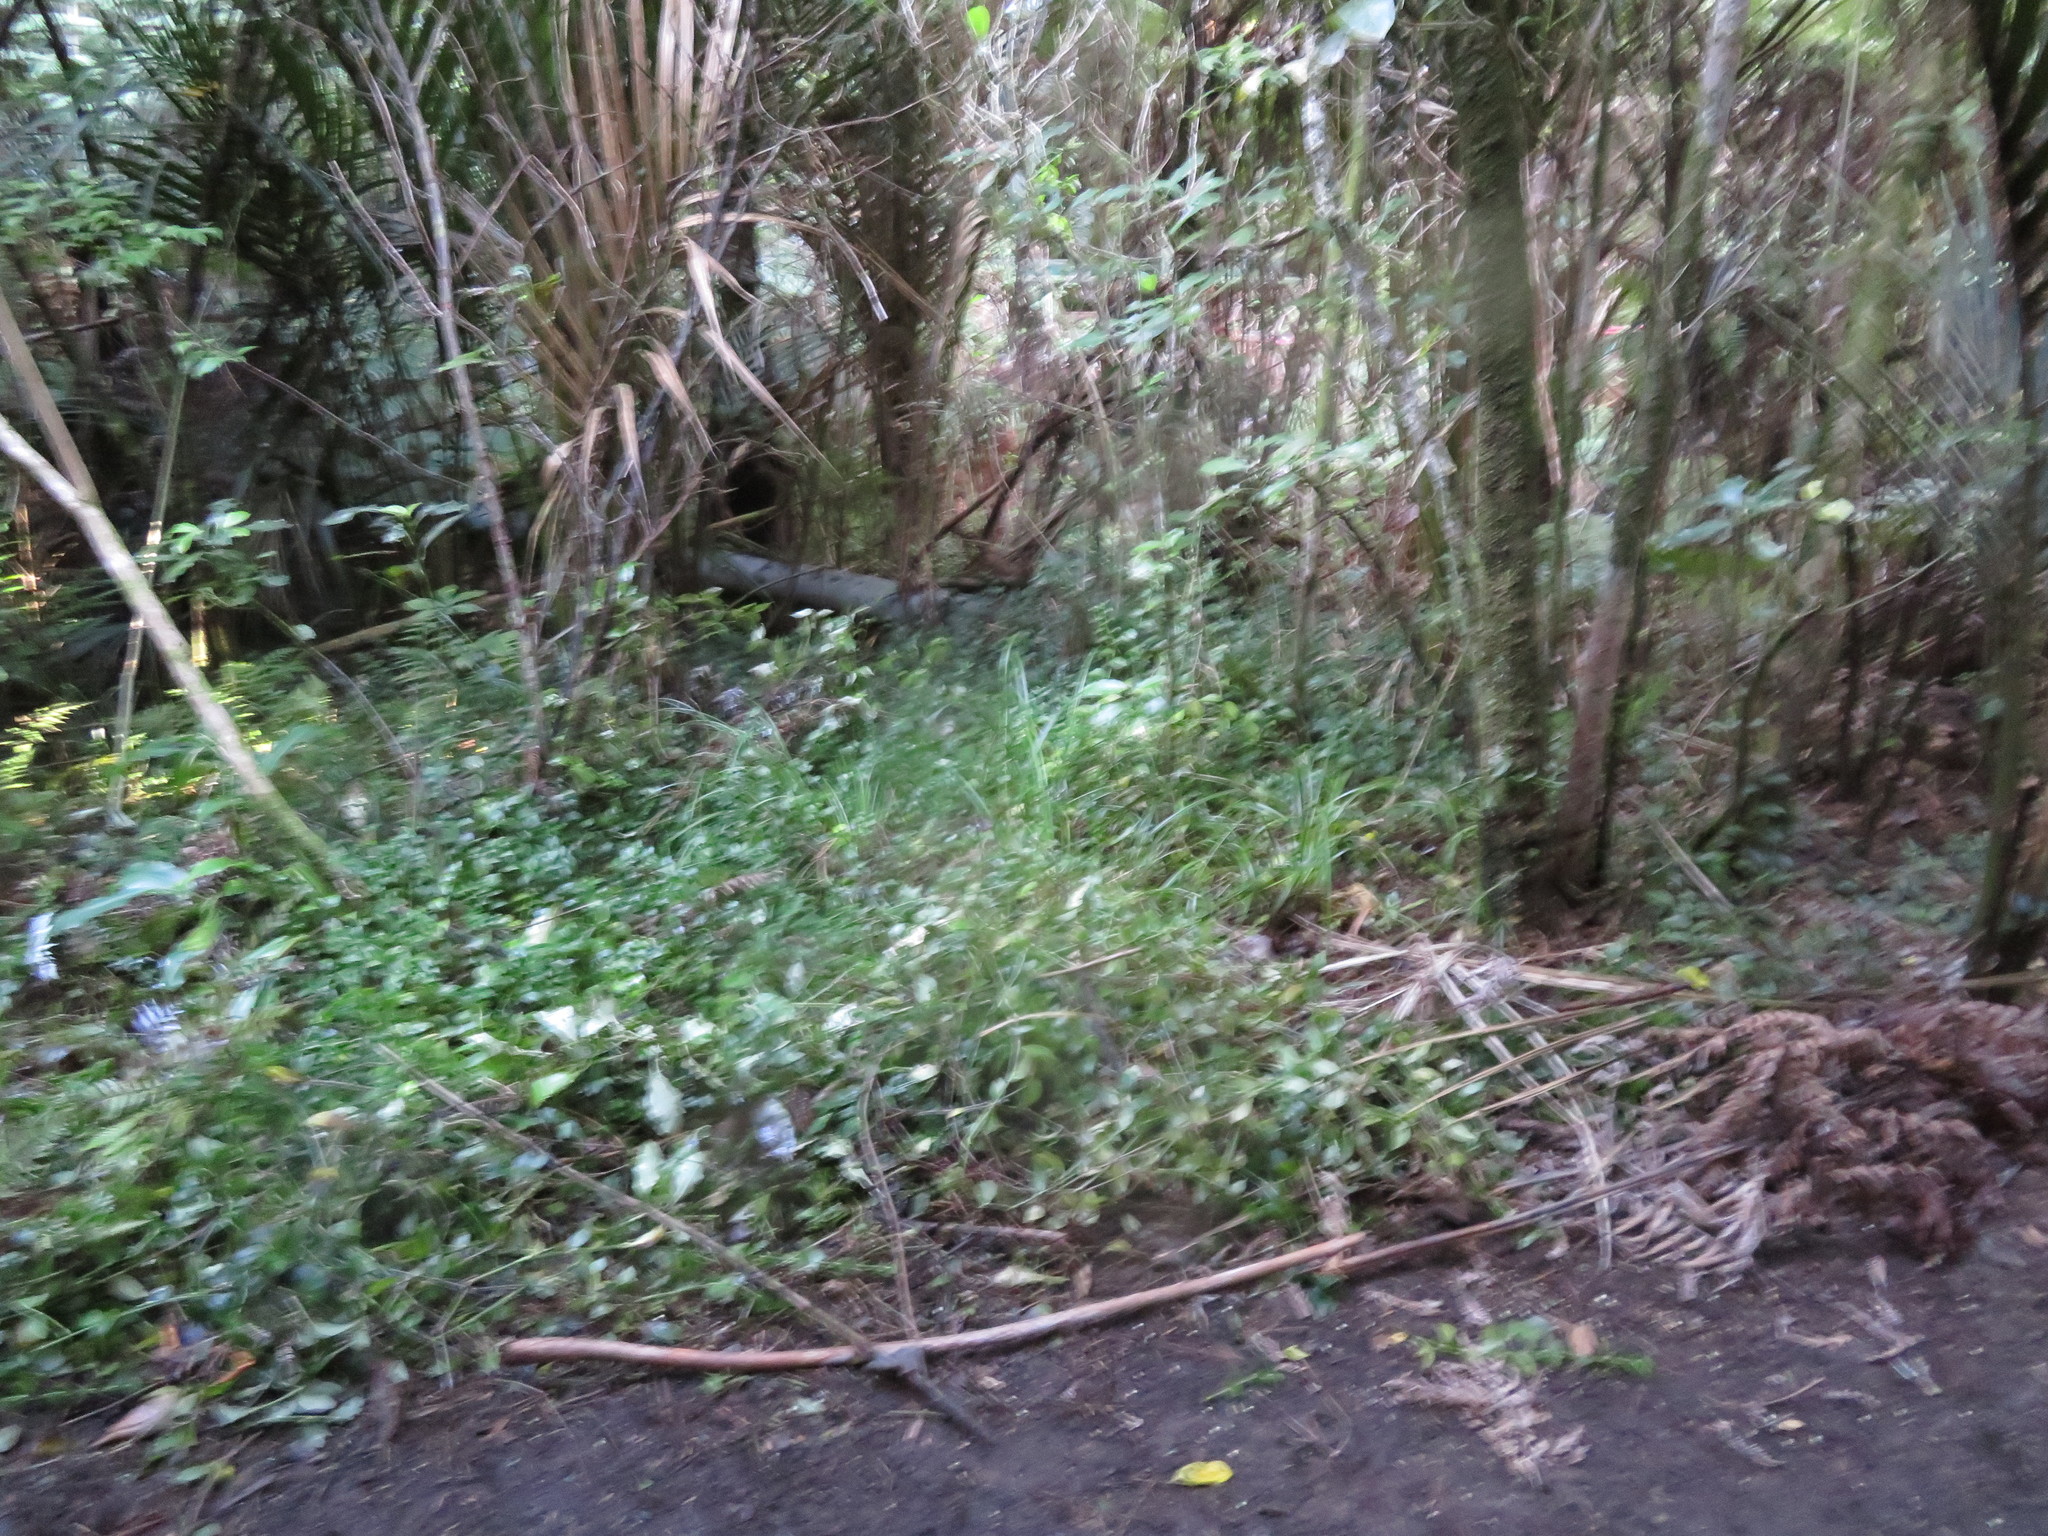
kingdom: Plantae
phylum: Tracheophyta
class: Liliopsida
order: Commelinales
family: Commelinaceae
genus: Tradescantia
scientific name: Tradescantia fluminensis
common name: Wandering-jew
